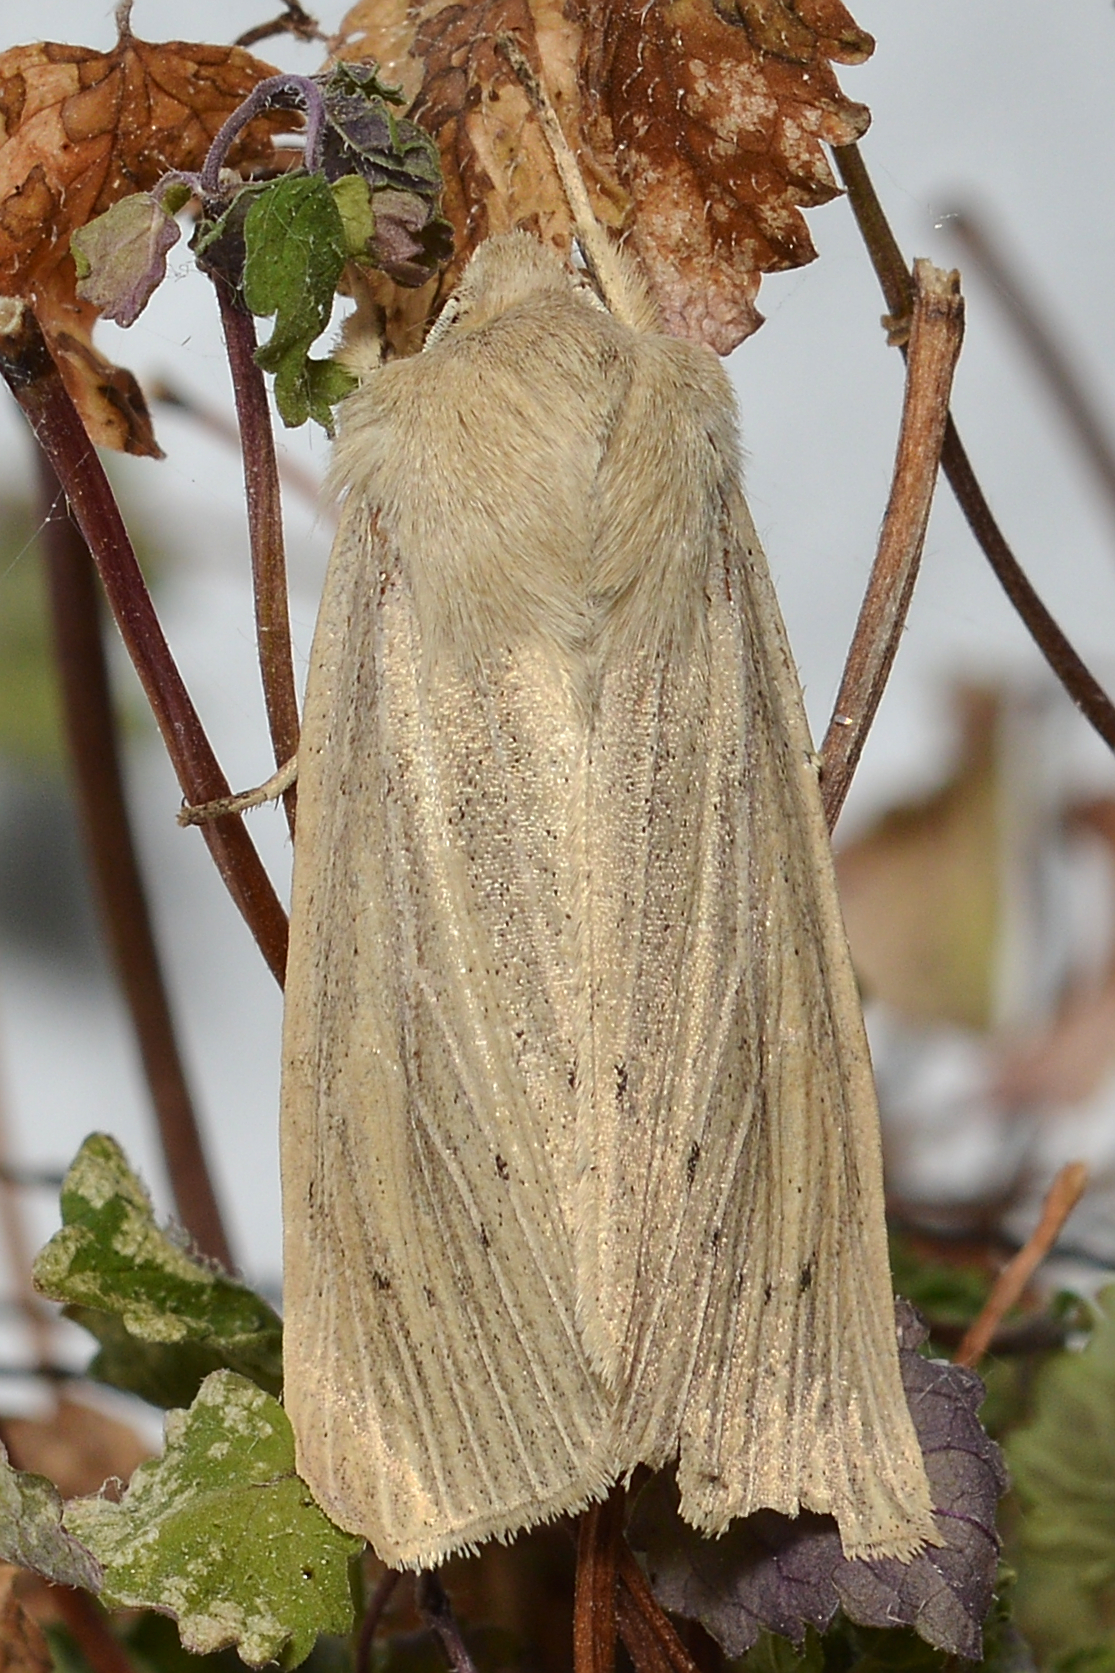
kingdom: Animalia
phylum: Arthropoda
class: Insecta
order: Lepidoptera
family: Noctuidae
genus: Rhizedra
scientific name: Rhizedra lutosa
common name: Large wainscot
